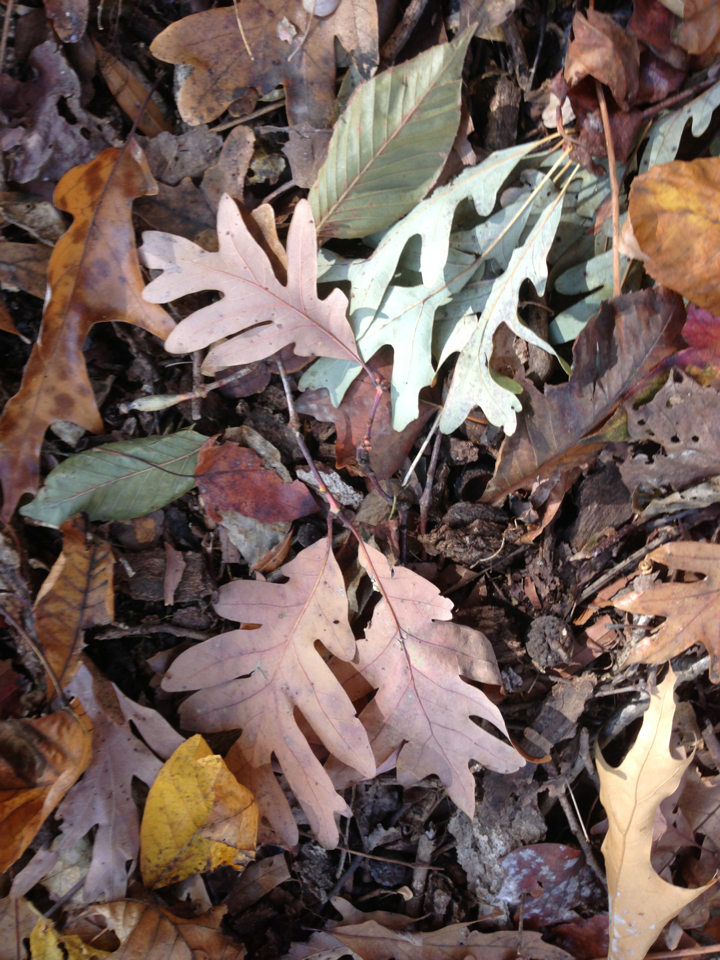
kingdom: Plantae
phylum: Tracheophyta
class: Magnoliopsida
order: Fagales
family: Fagaceae
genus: Quercus
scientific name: Quercus alba
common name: White oak
